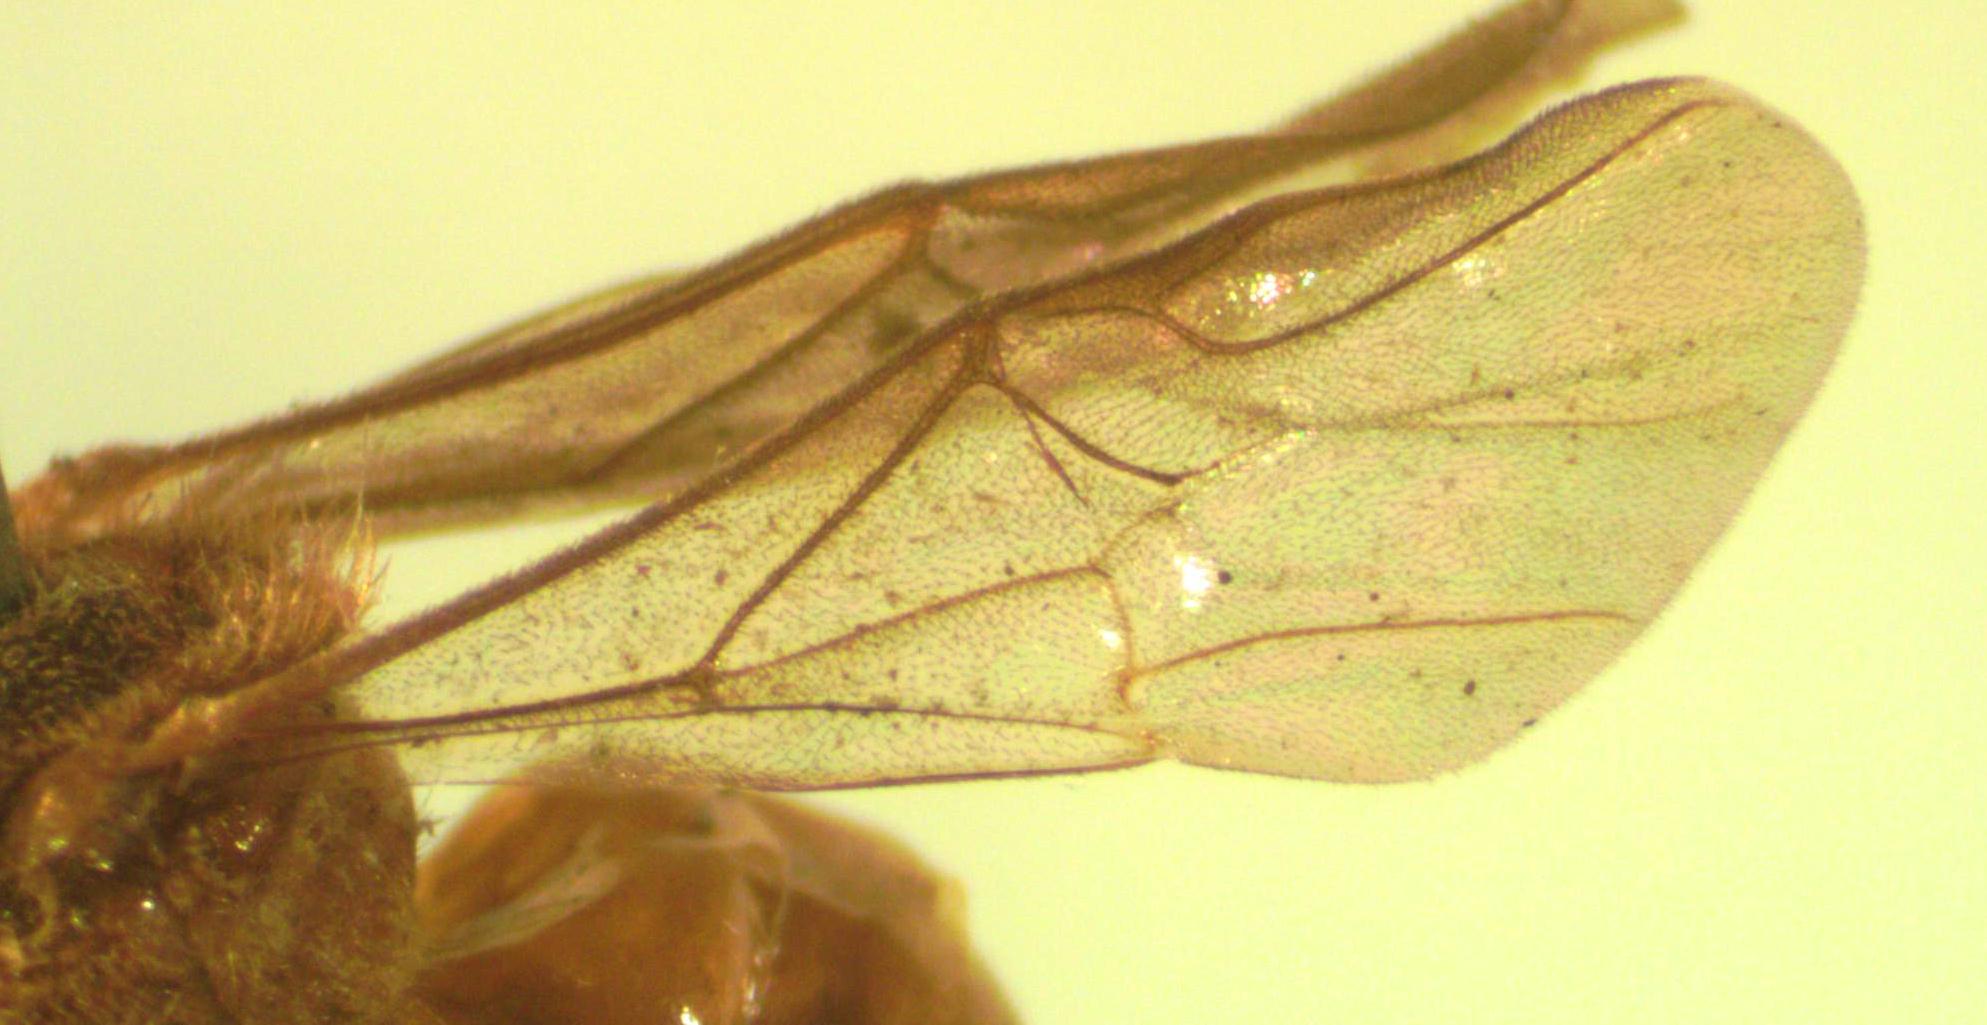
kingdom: Animalia
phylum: Arthropoda
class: Insecta
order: Hymenoptera
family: Apidae
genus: Trigona
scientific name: Trigona muzoensis
